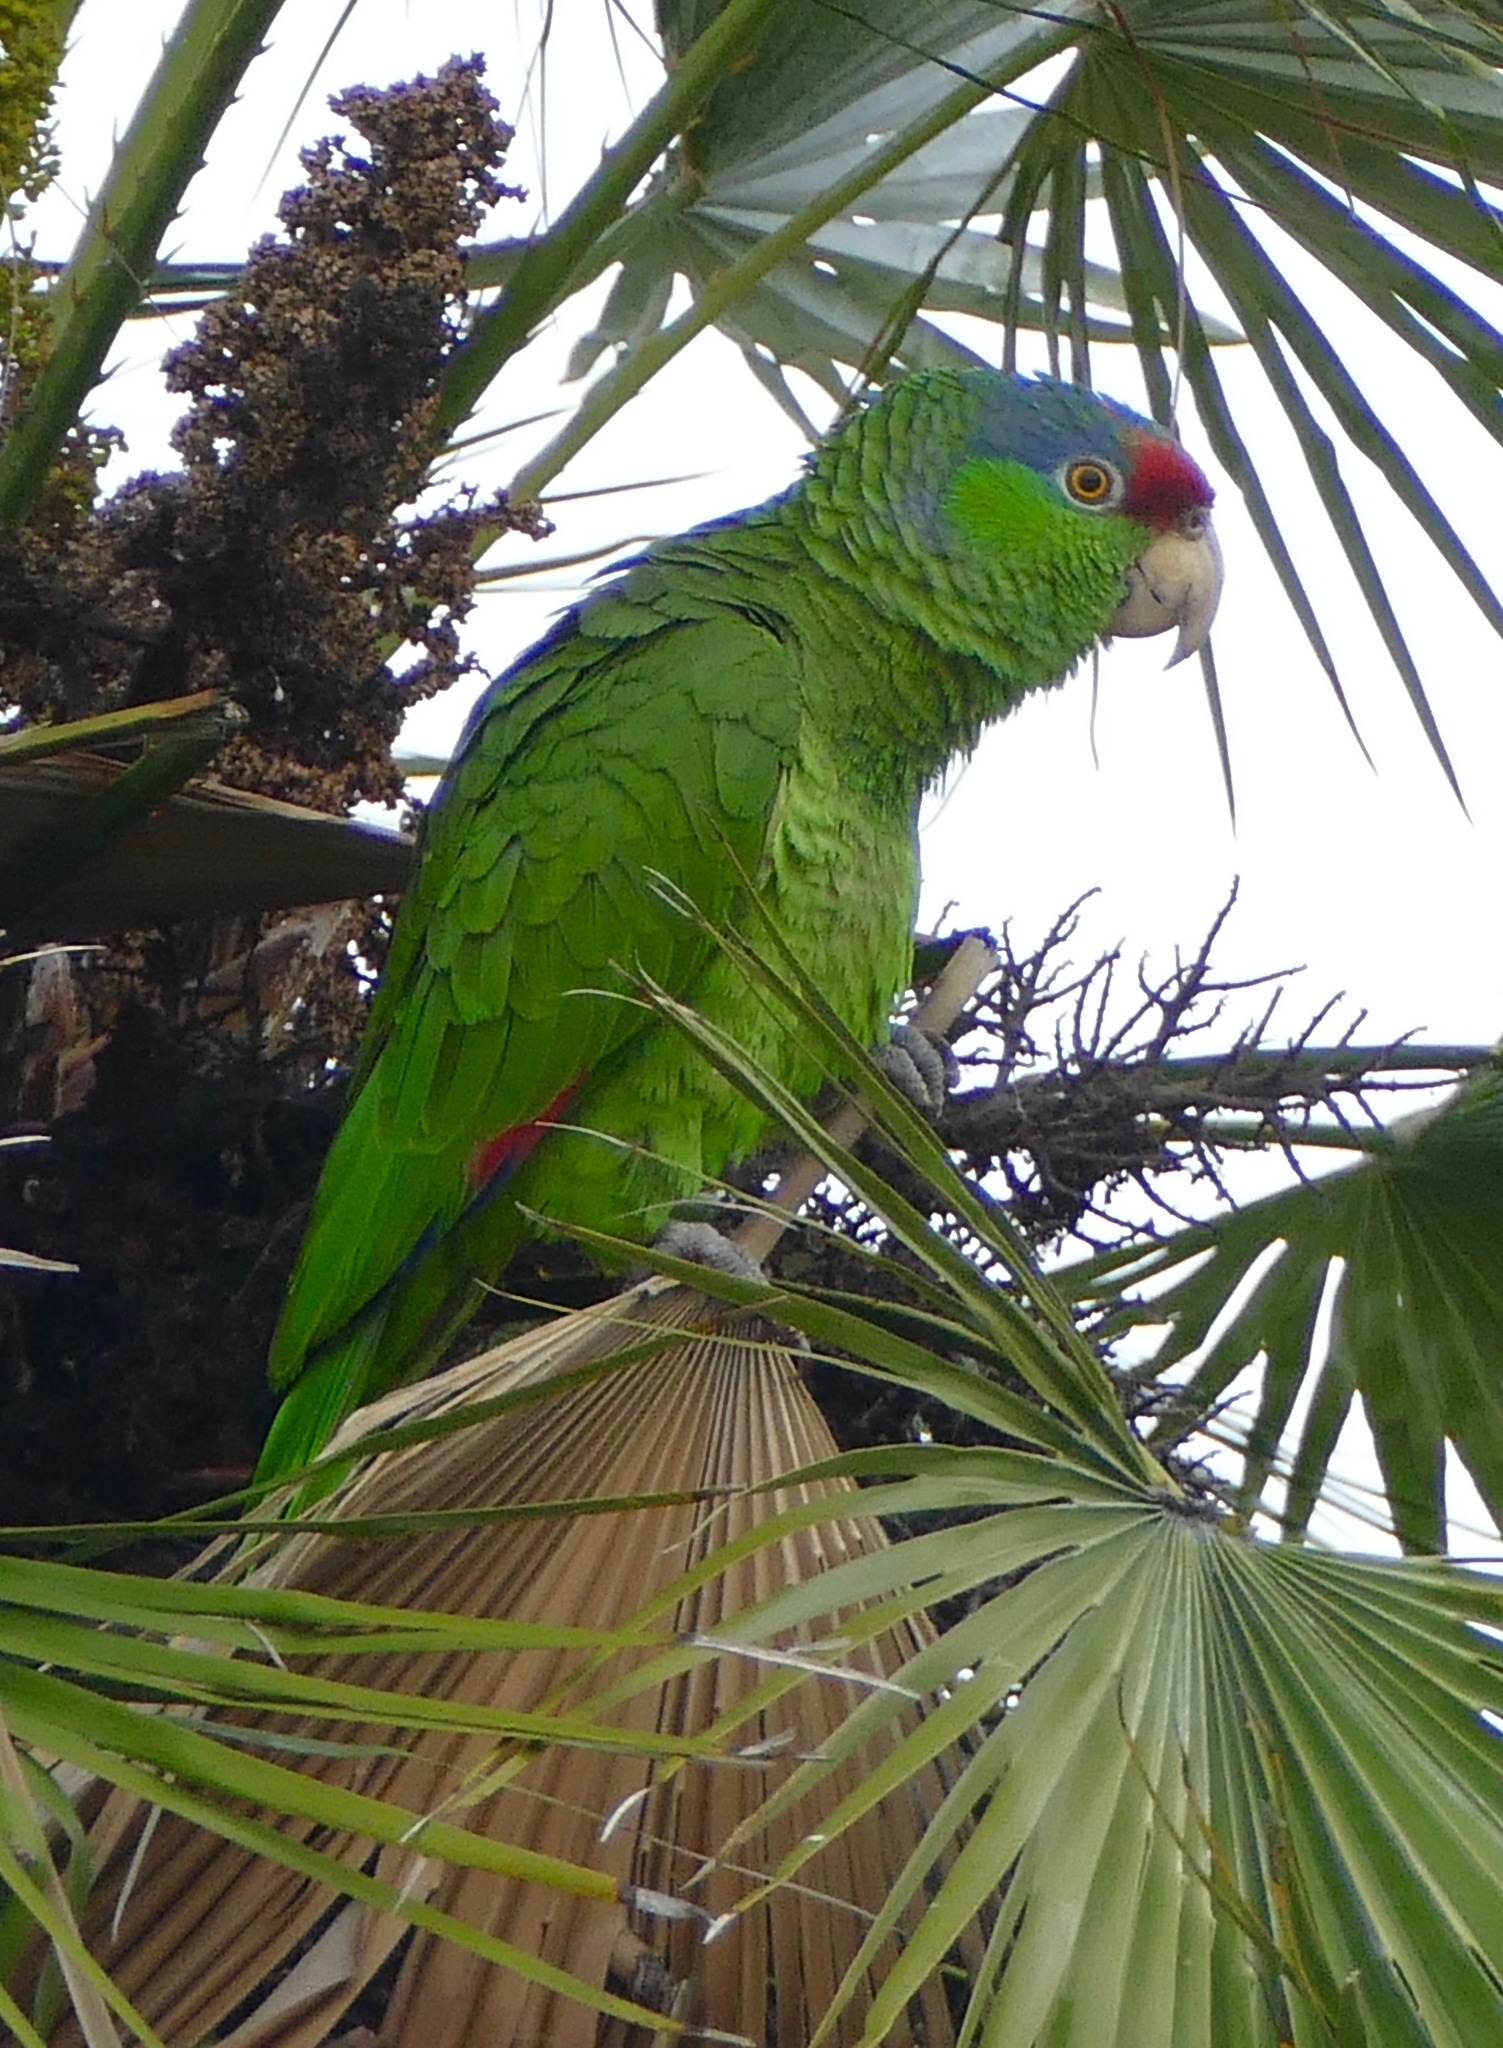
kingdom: Animalia
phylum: Chordata
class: Aves
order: Psittaciformes
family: Psittacidae
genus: Amazona
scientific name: Amazona finschi
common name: Lilac-crowned amazon
